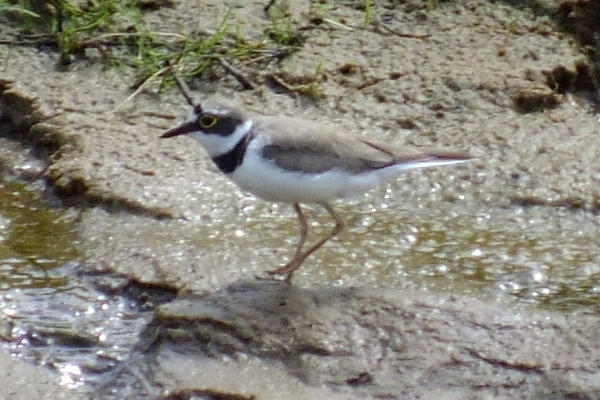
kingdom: Animalia
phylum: Chordata
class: Aves
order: Charadriiformes
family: Charadriidae
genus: Charadrius
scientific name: Charadrius dubius
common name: Little ringed plover
